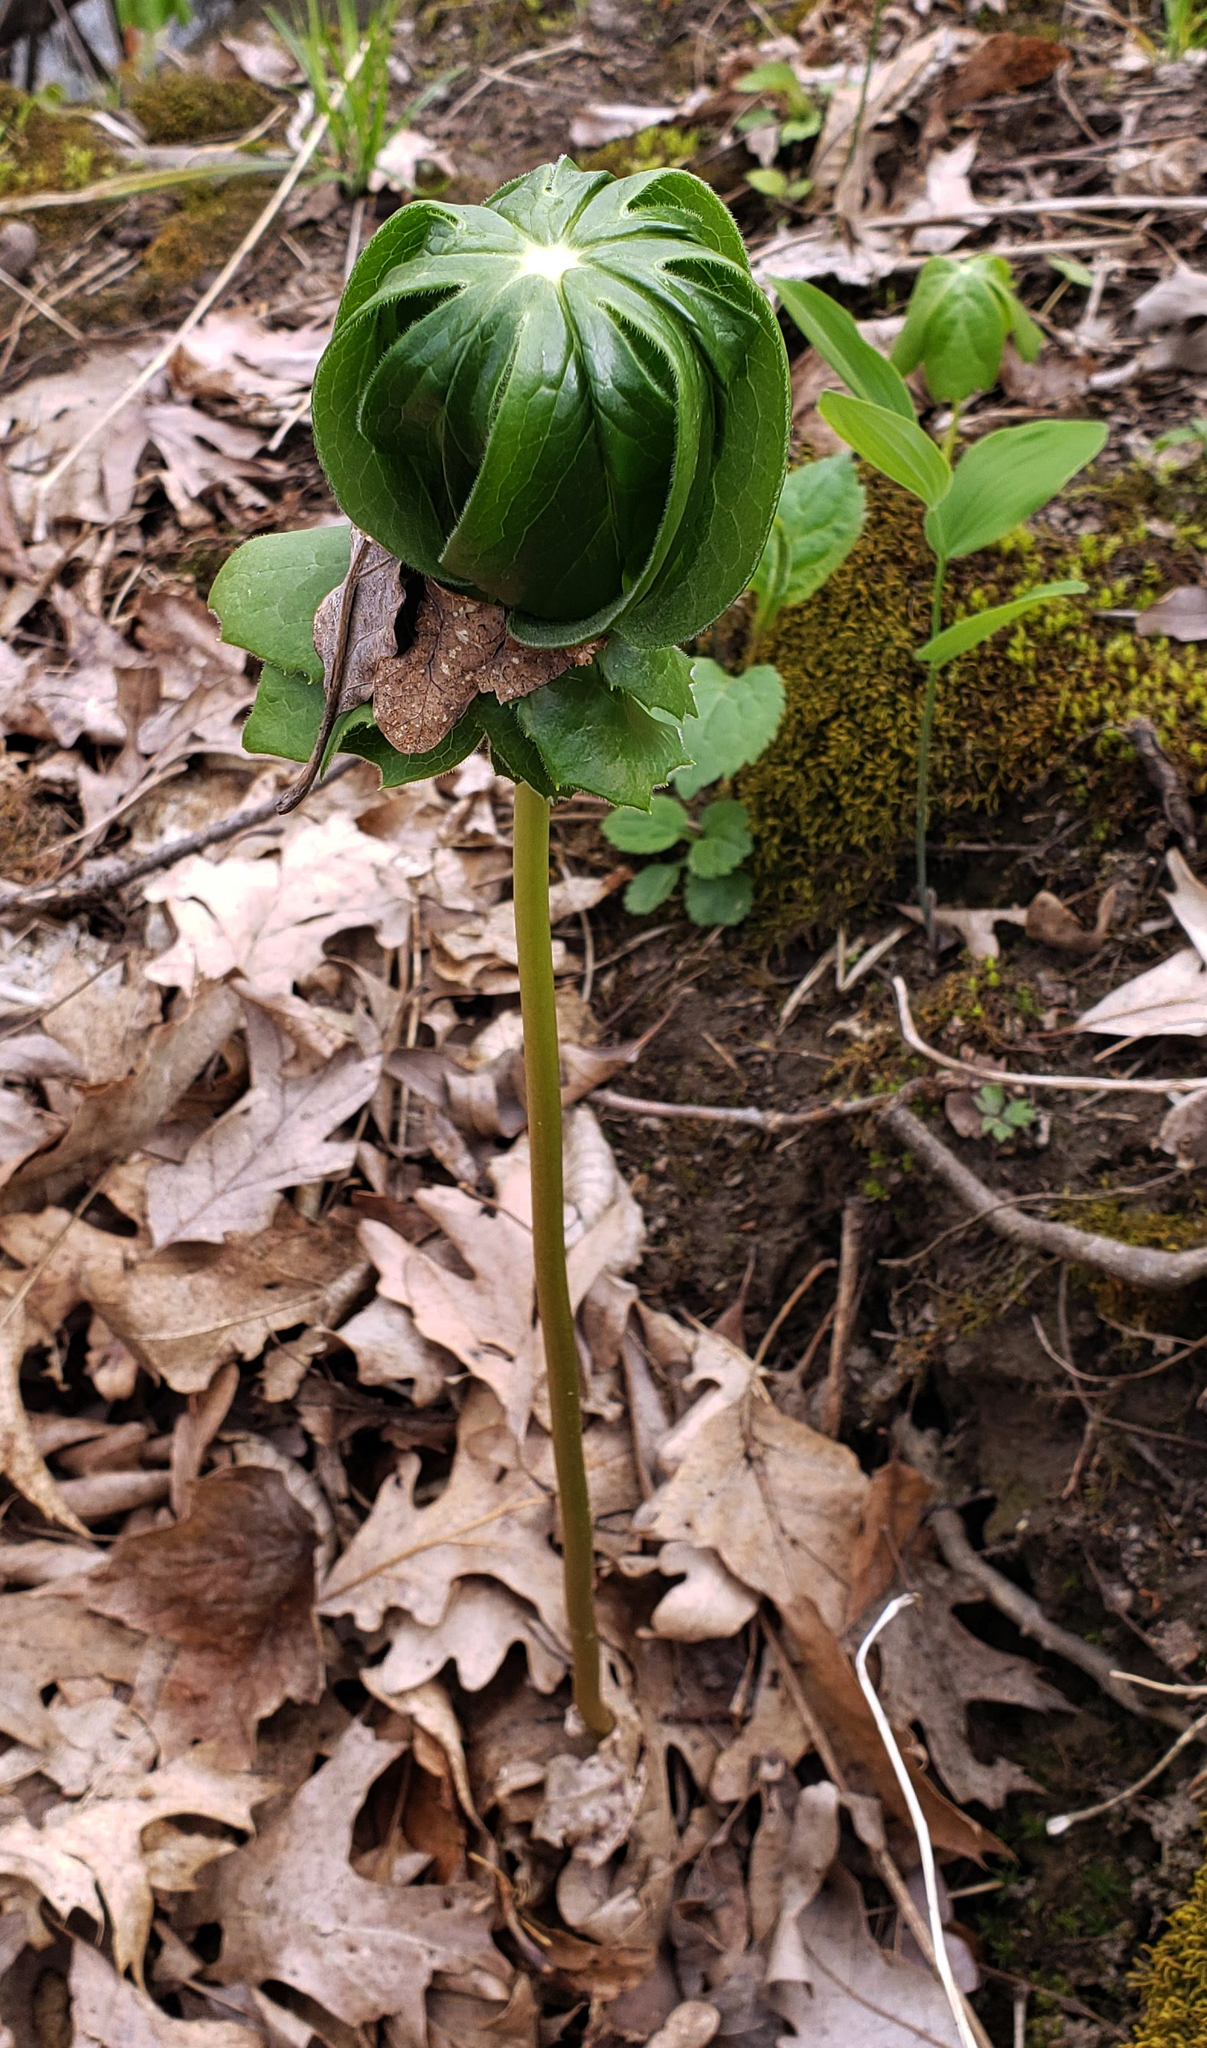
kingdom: Plantae
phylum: Tracheophyta
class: Magnoliopsida
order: Ranunculales
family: Berberidaceae
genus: Podophyllum
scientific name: Podophyllum peltatum
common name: Wild mandrake
